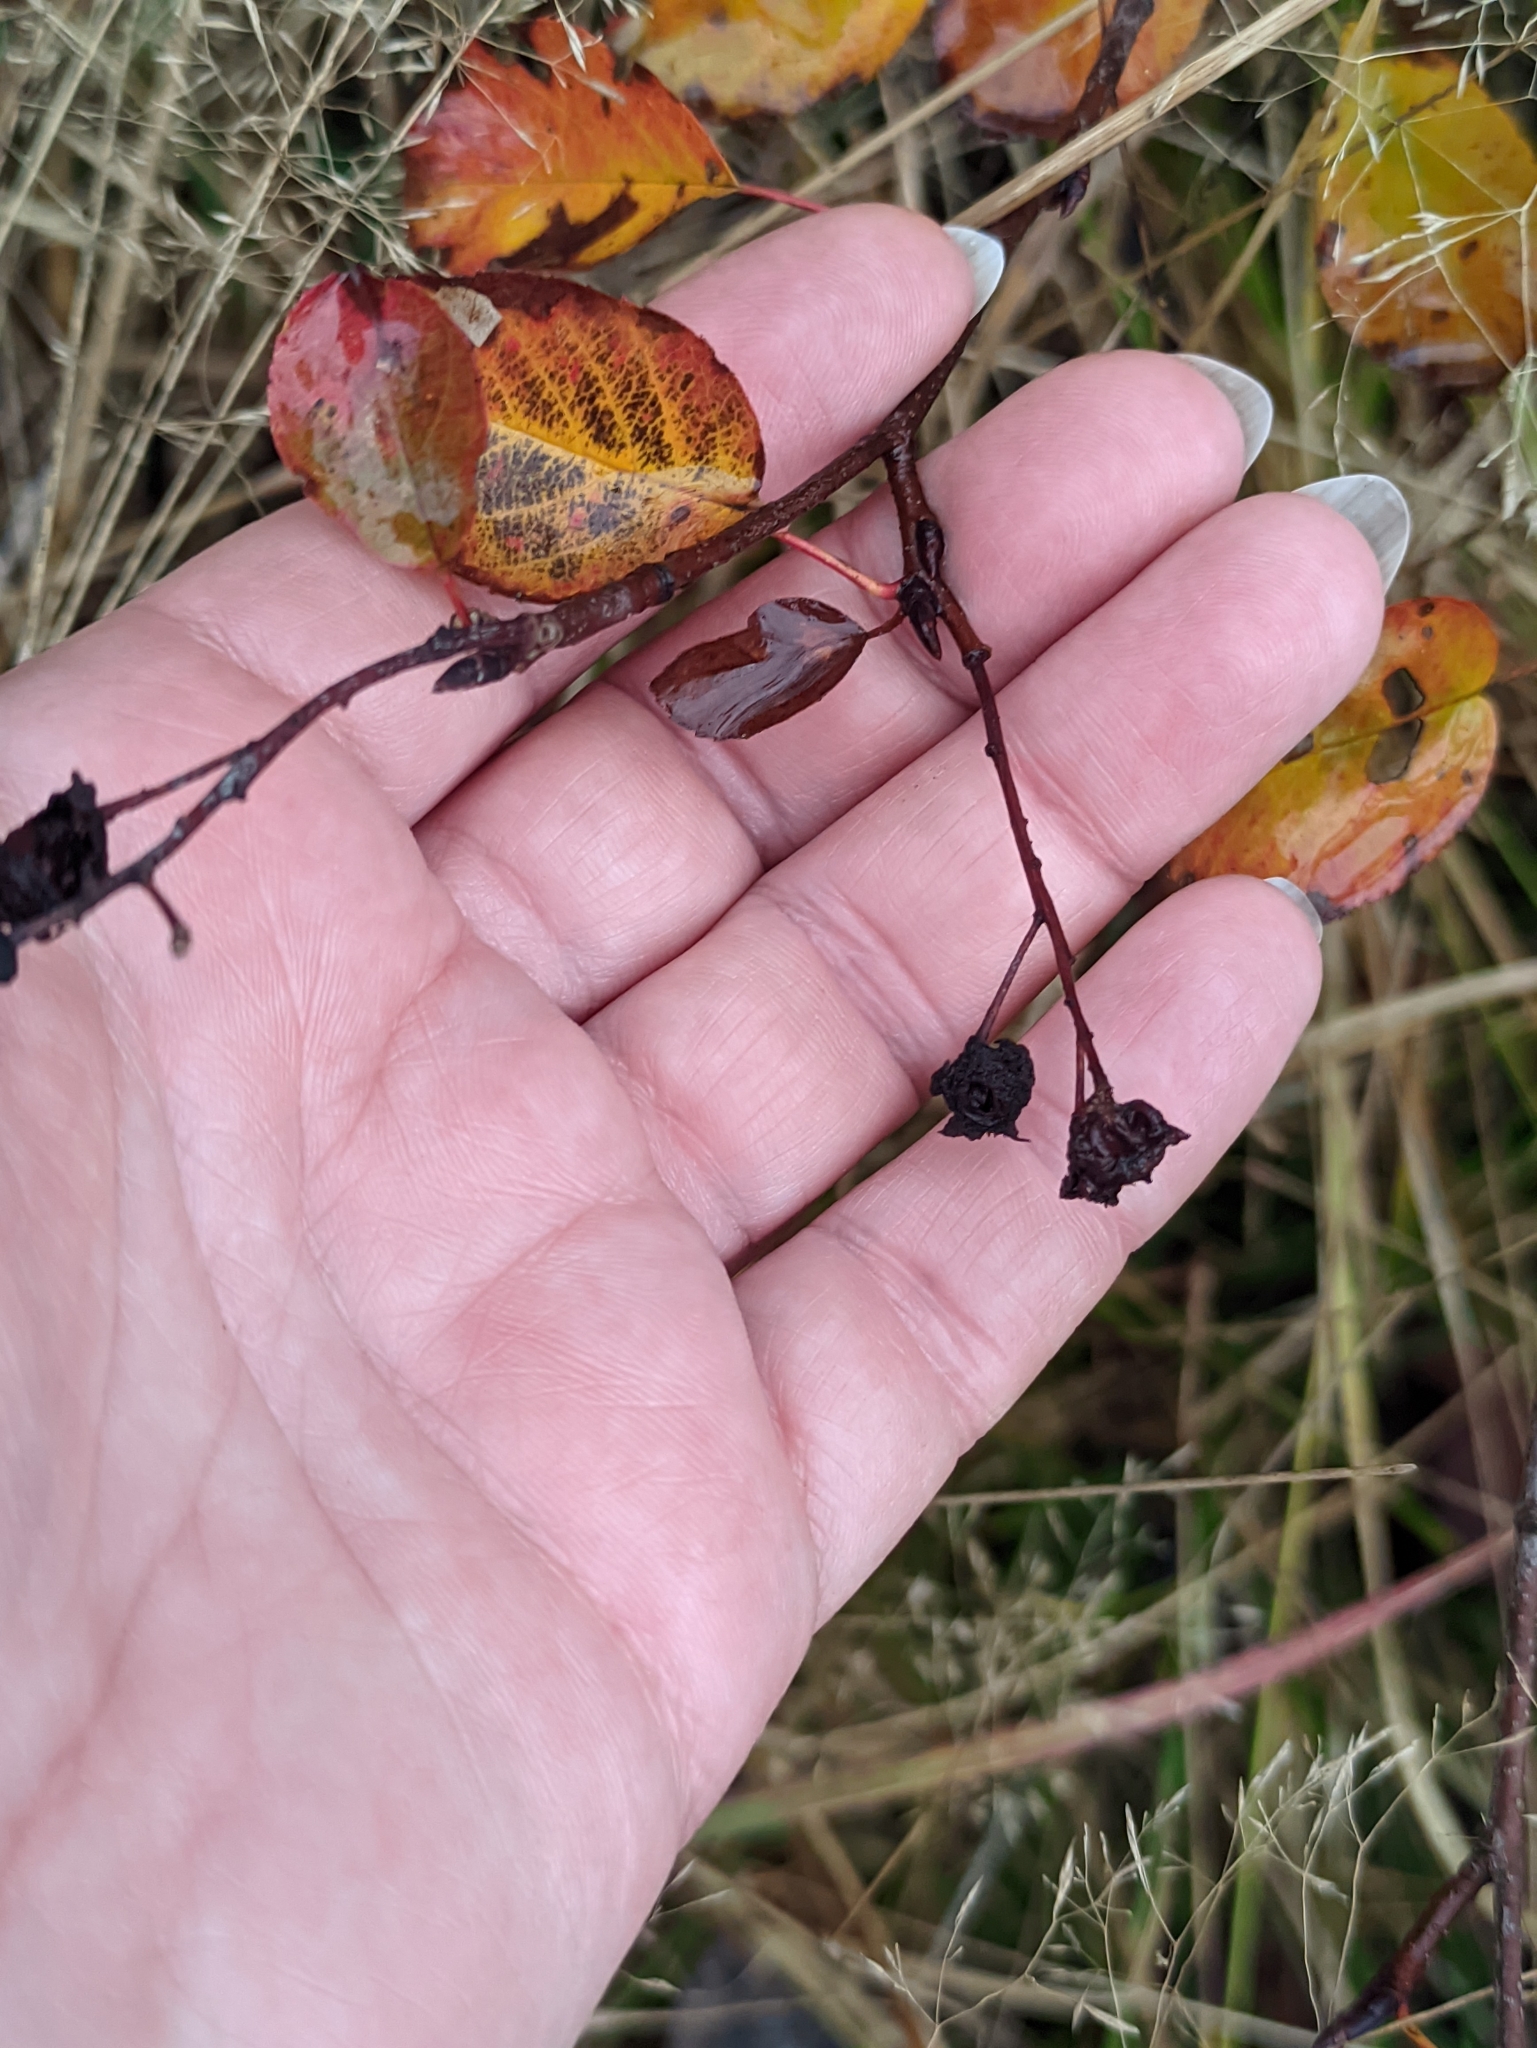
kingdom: Plantae
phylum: Tracheophyta
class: Magnoliopsida
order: Rosales
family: Rosaceae
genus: Amelanchier
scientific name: Amelanchier
